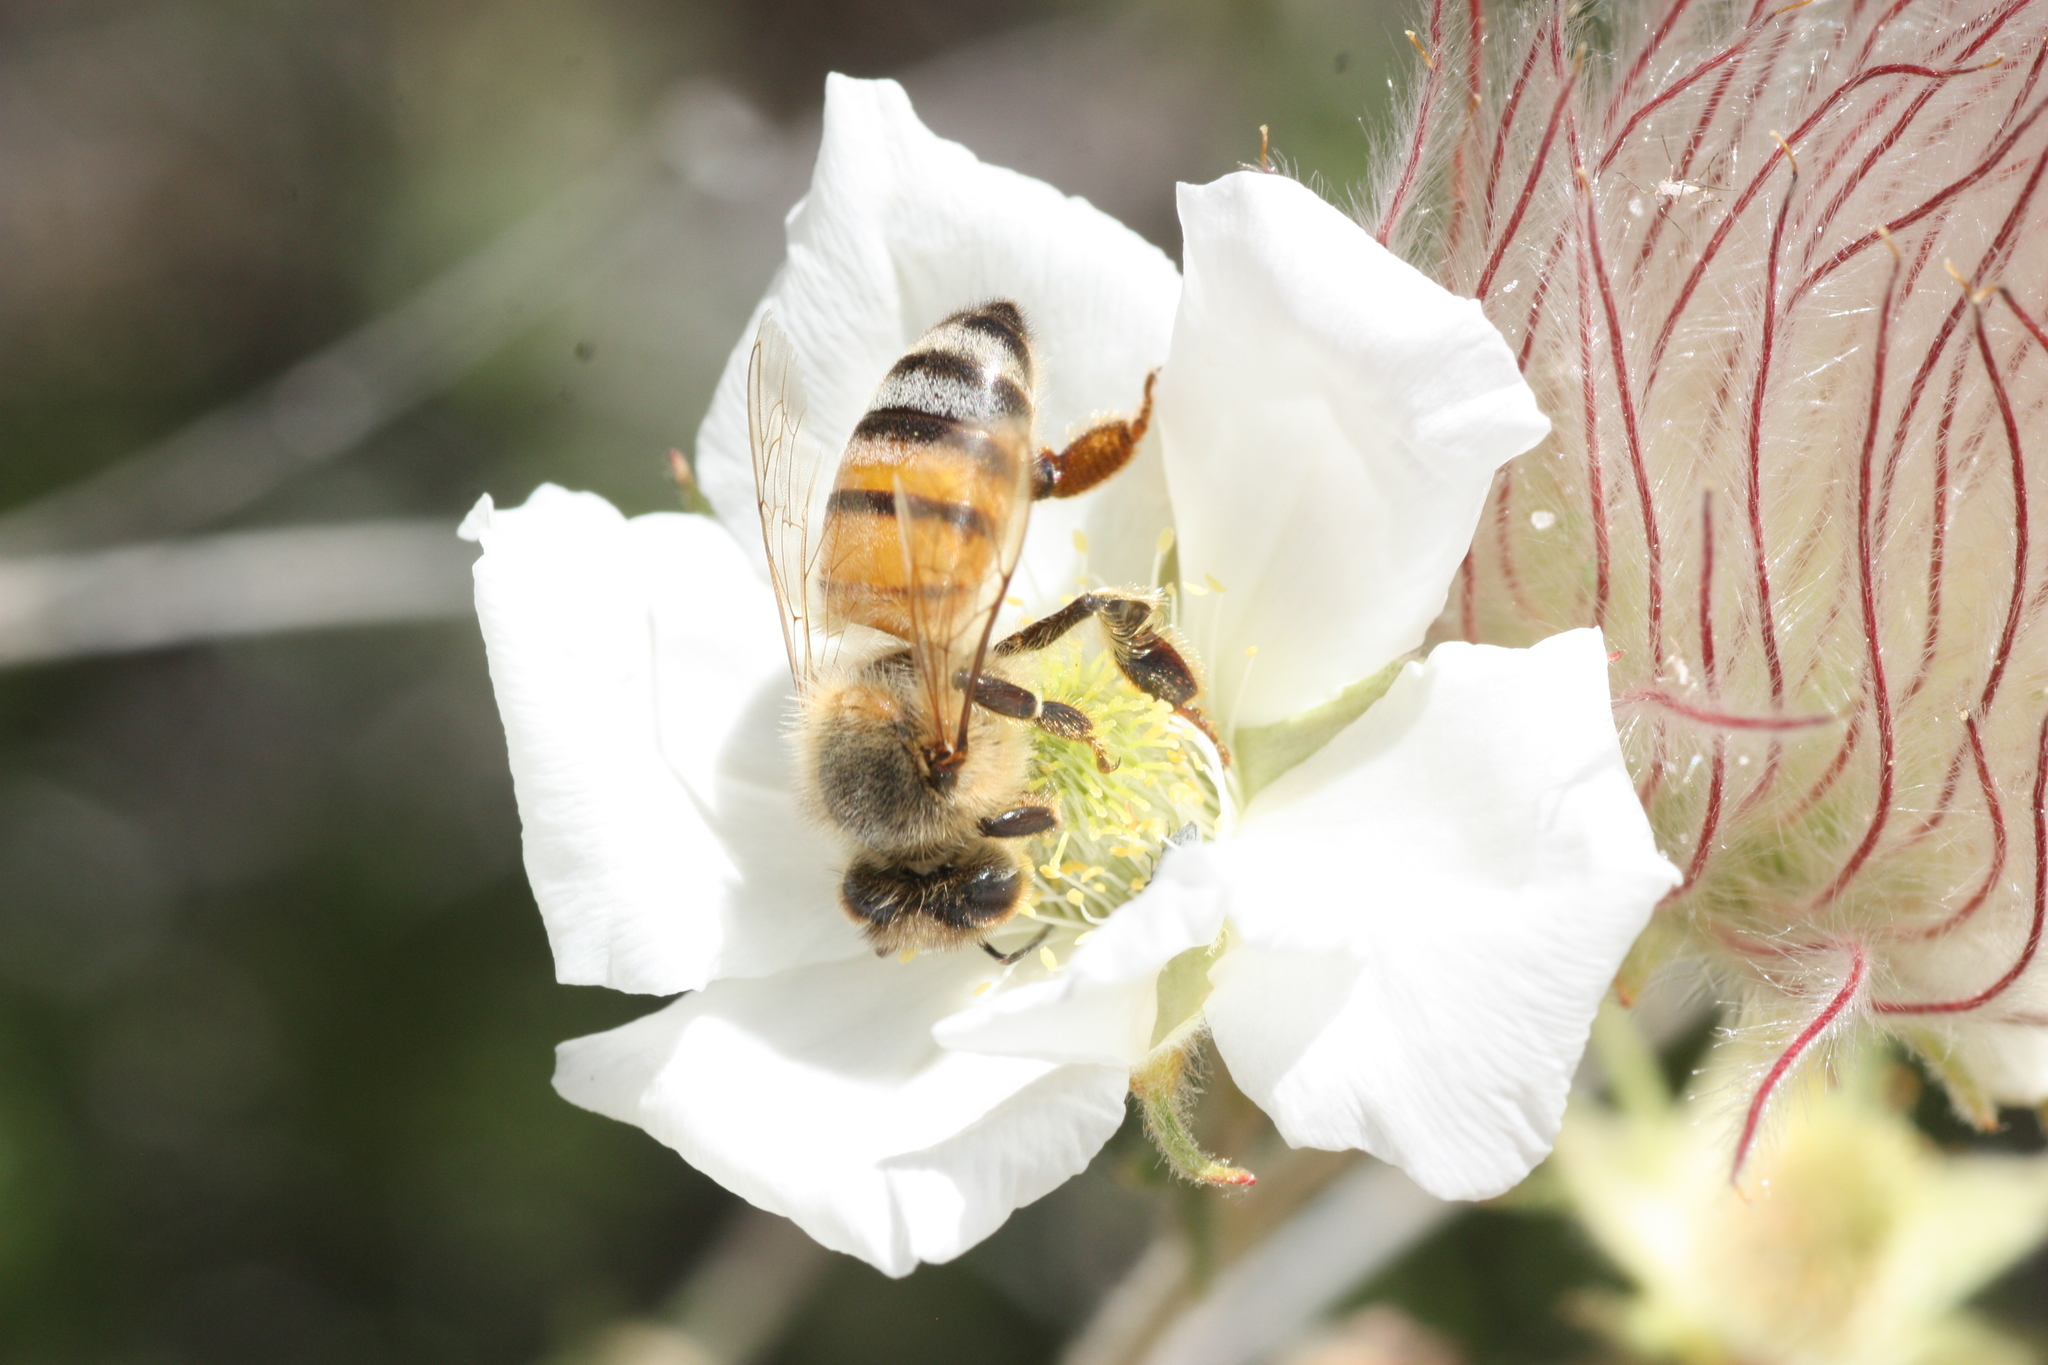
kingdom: Animalia
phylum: Arthropoda
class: Insecta
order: Hymenoptera
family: Apidae
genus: Apis
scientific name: Apis mellifera
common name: Honey bee
